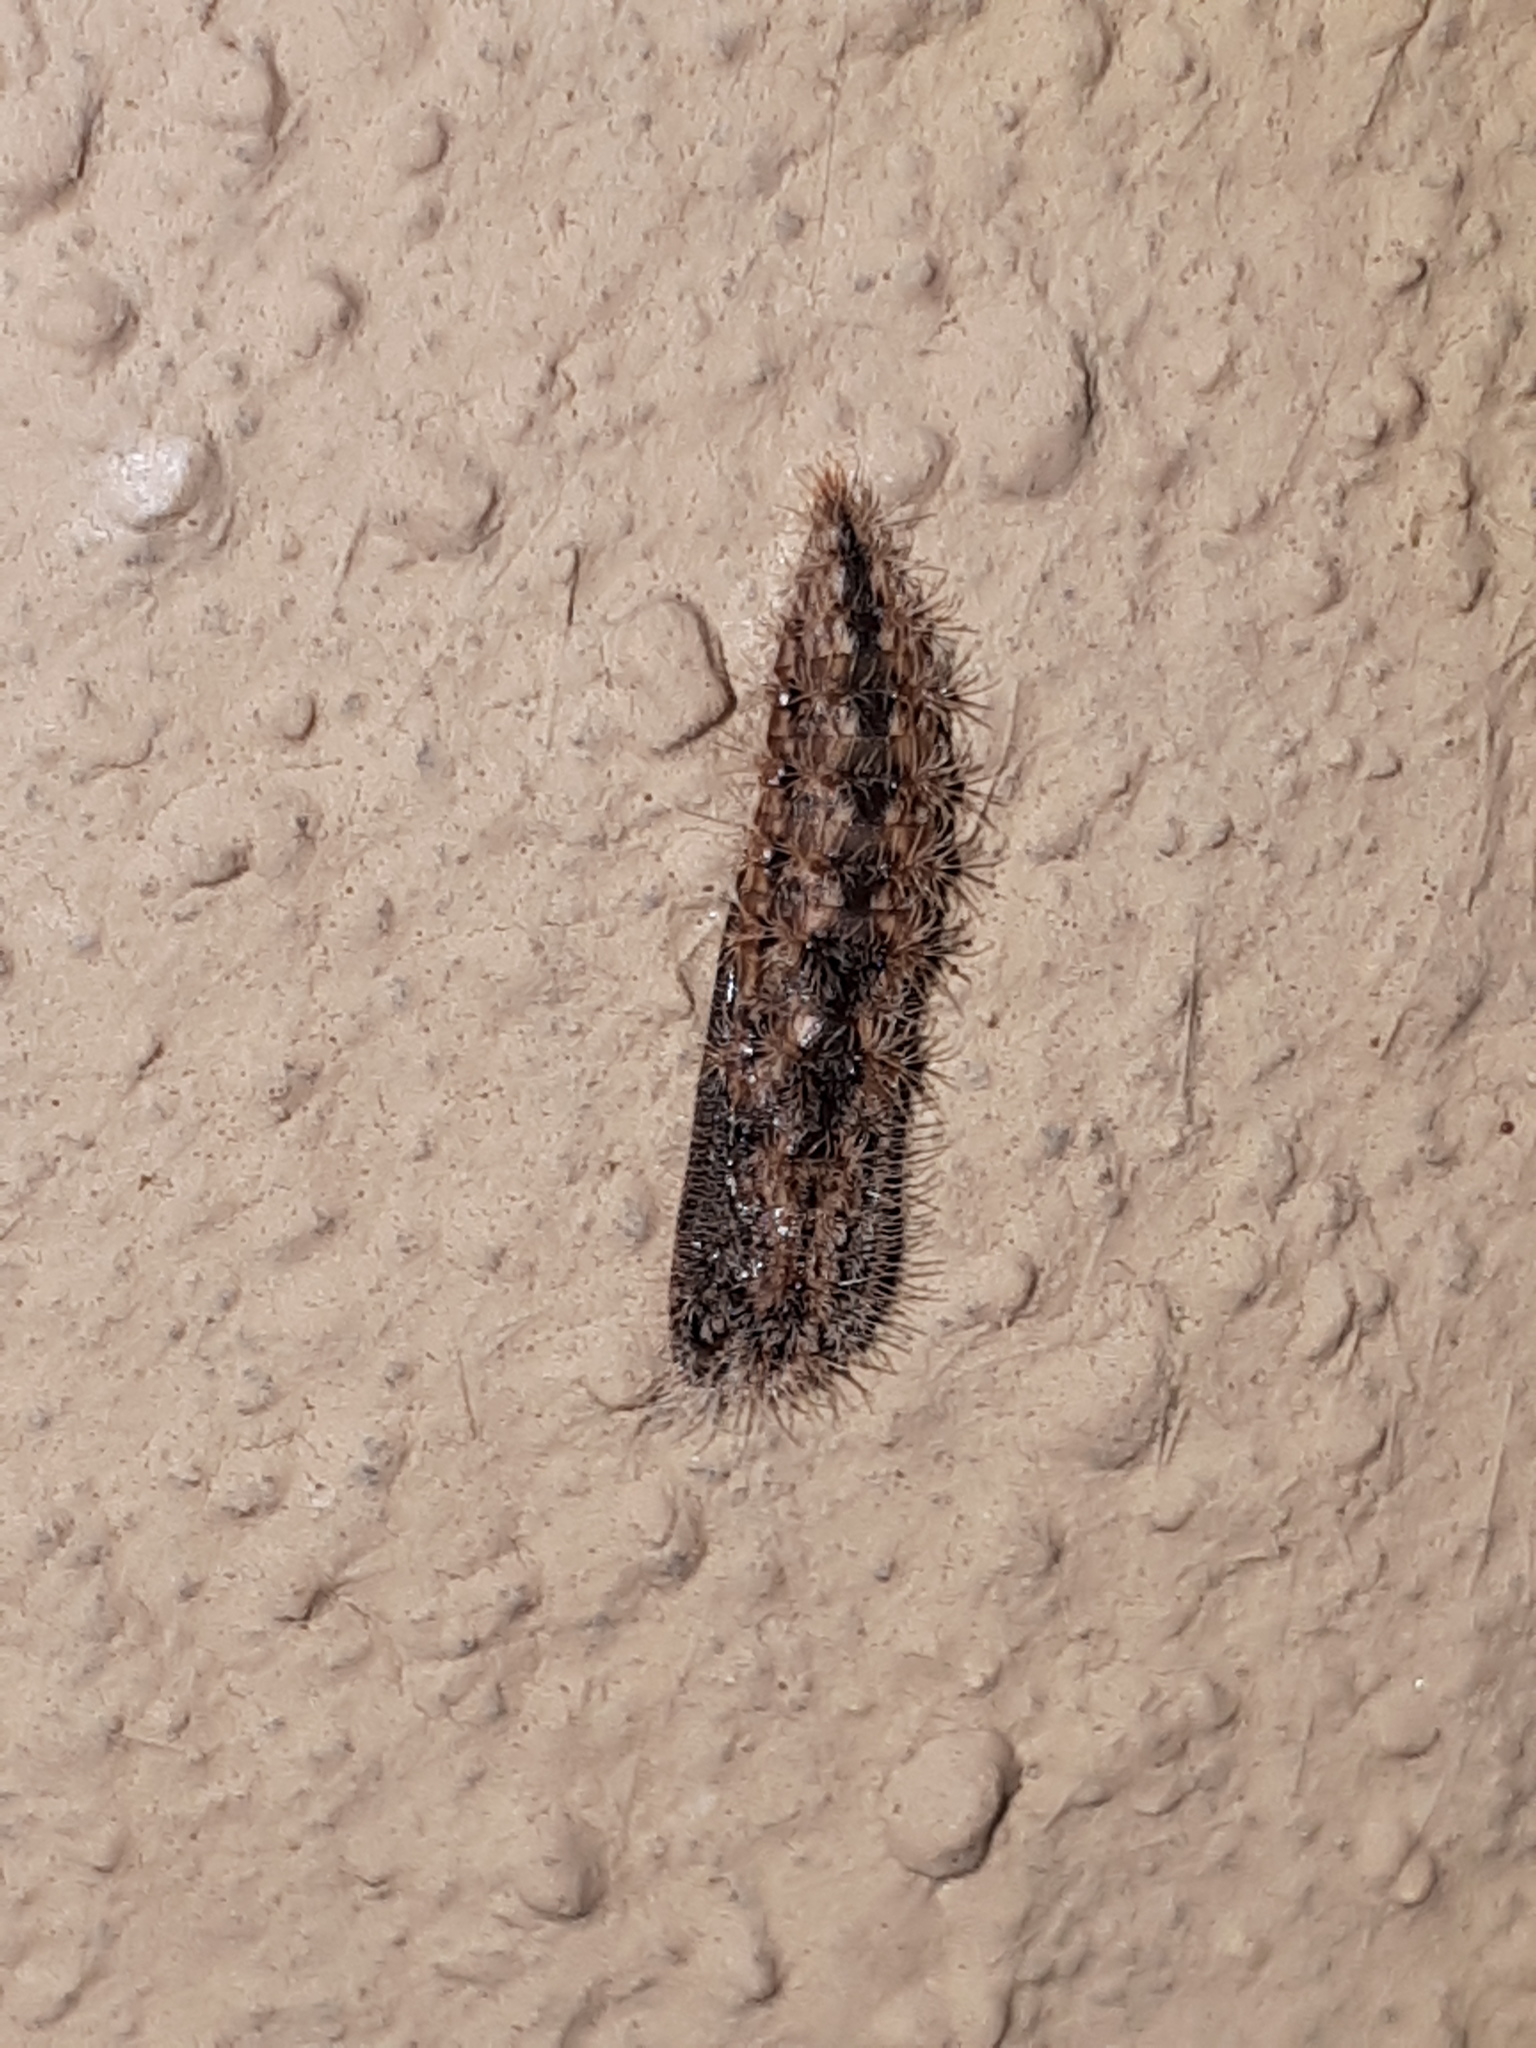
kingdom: Animalia
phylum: Arthropoda
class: Insecta
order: Lepidoptera
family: Pterophoridae
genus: Emmelina
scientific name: Emmelina monodactyla
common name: Common plume
